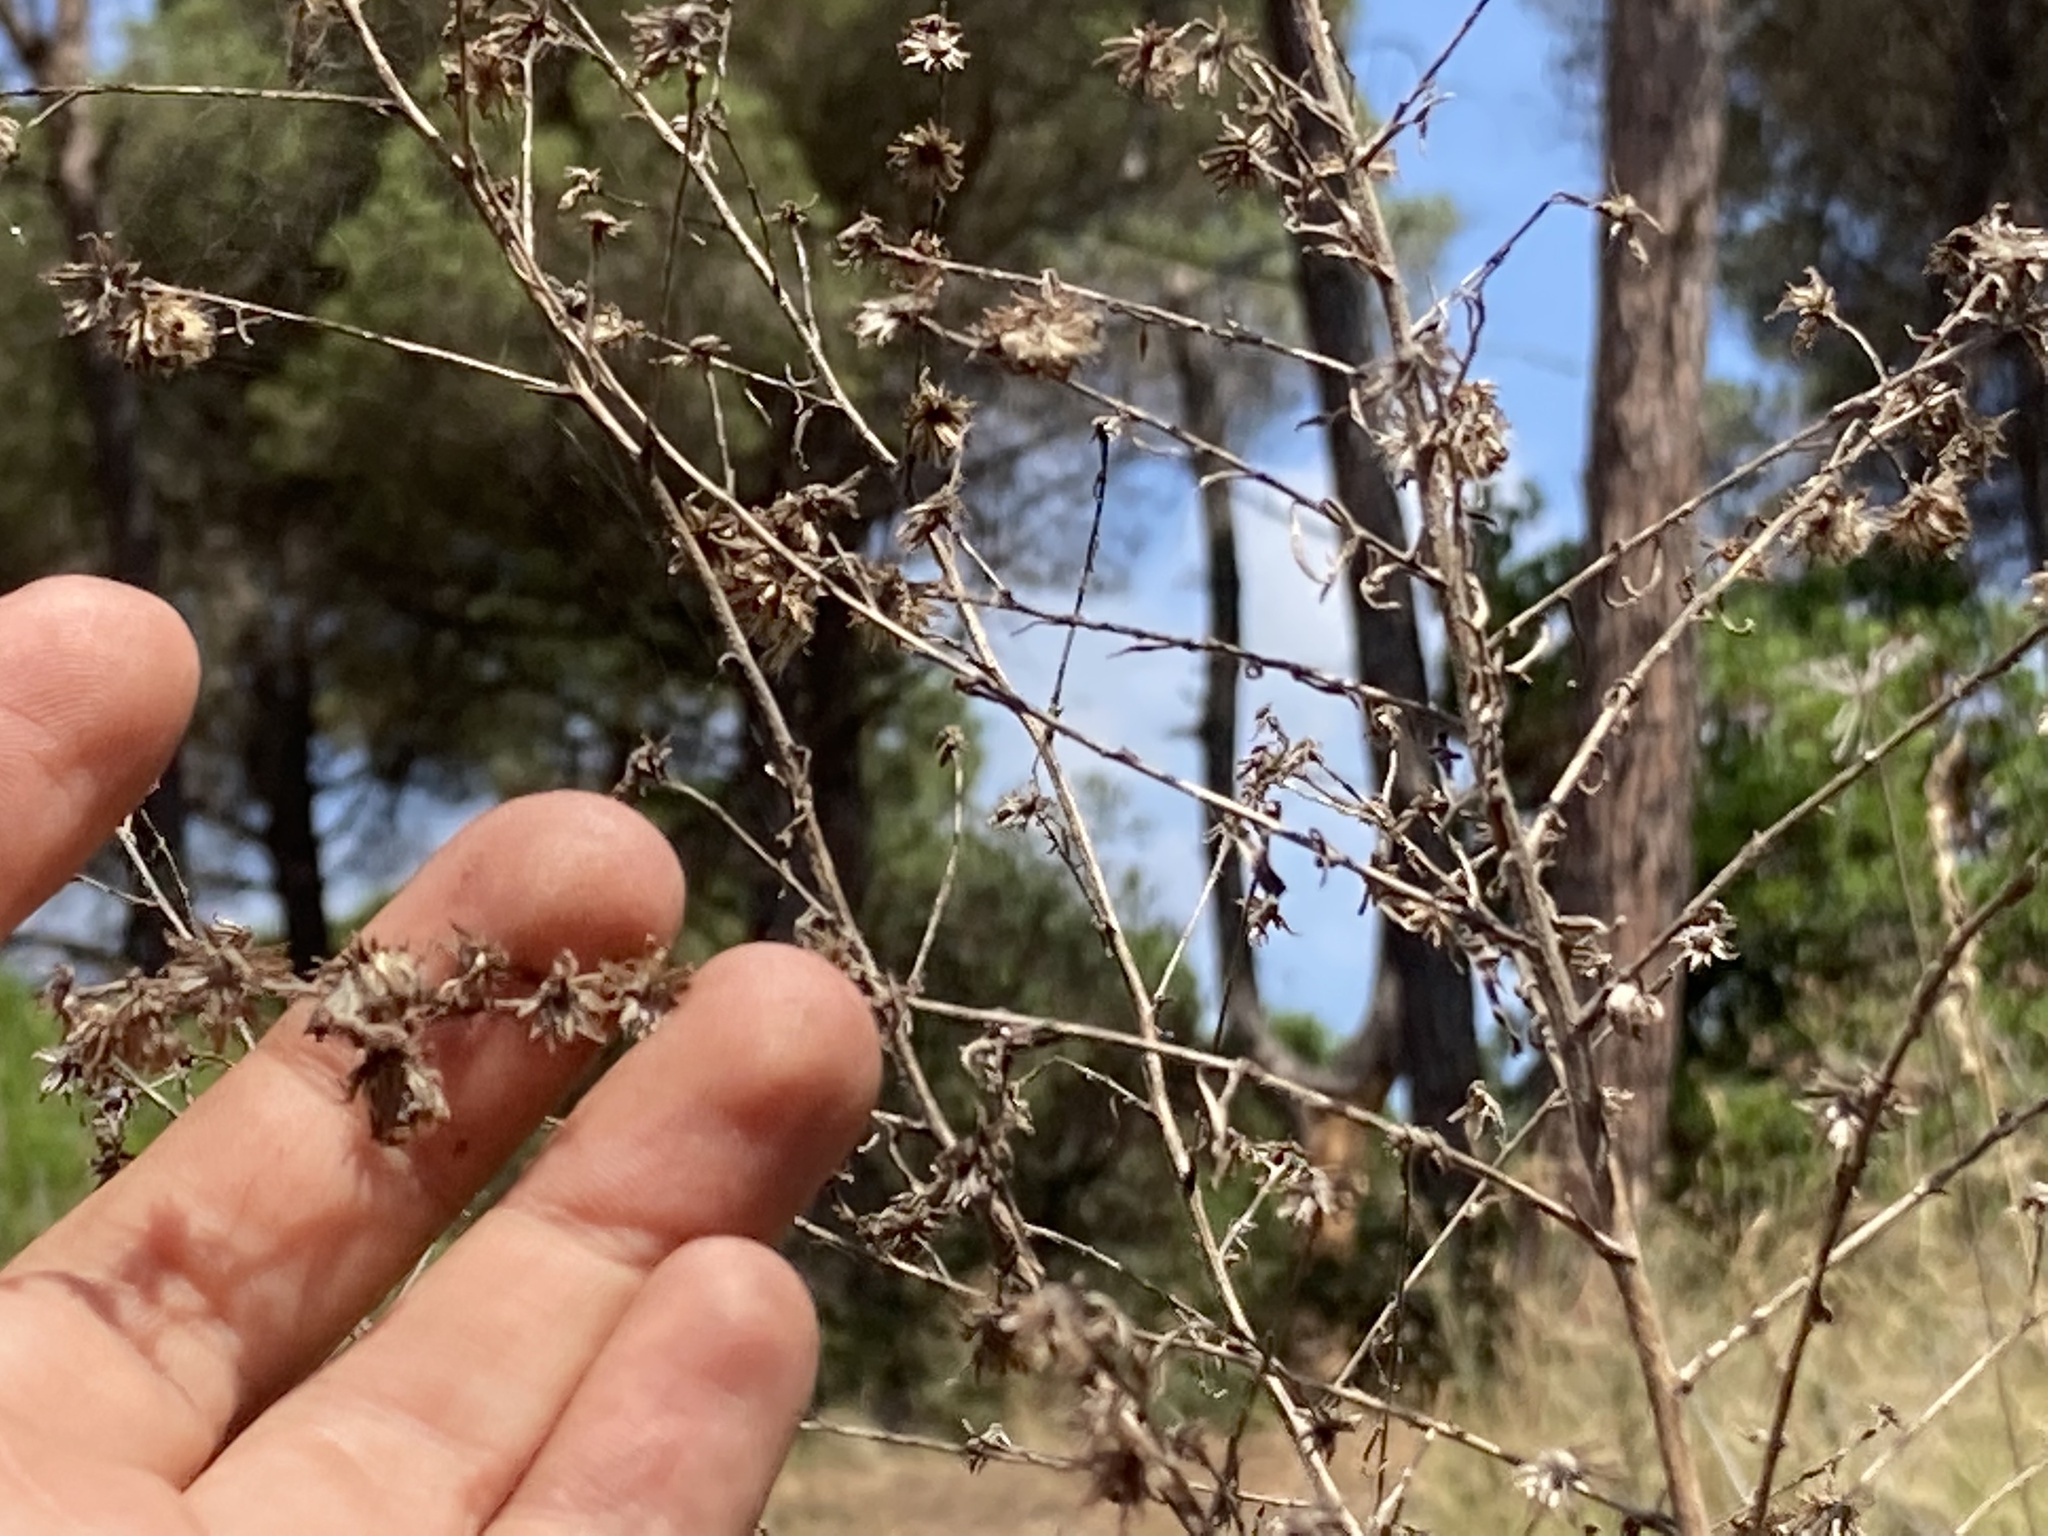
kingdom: Plantae
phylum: Tracheophyta
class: Magnoliopsida
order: Asterales
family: Asteraceae
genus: Symphyotrichum
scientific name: Symphyotrichum pilosum
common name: Awl aster
